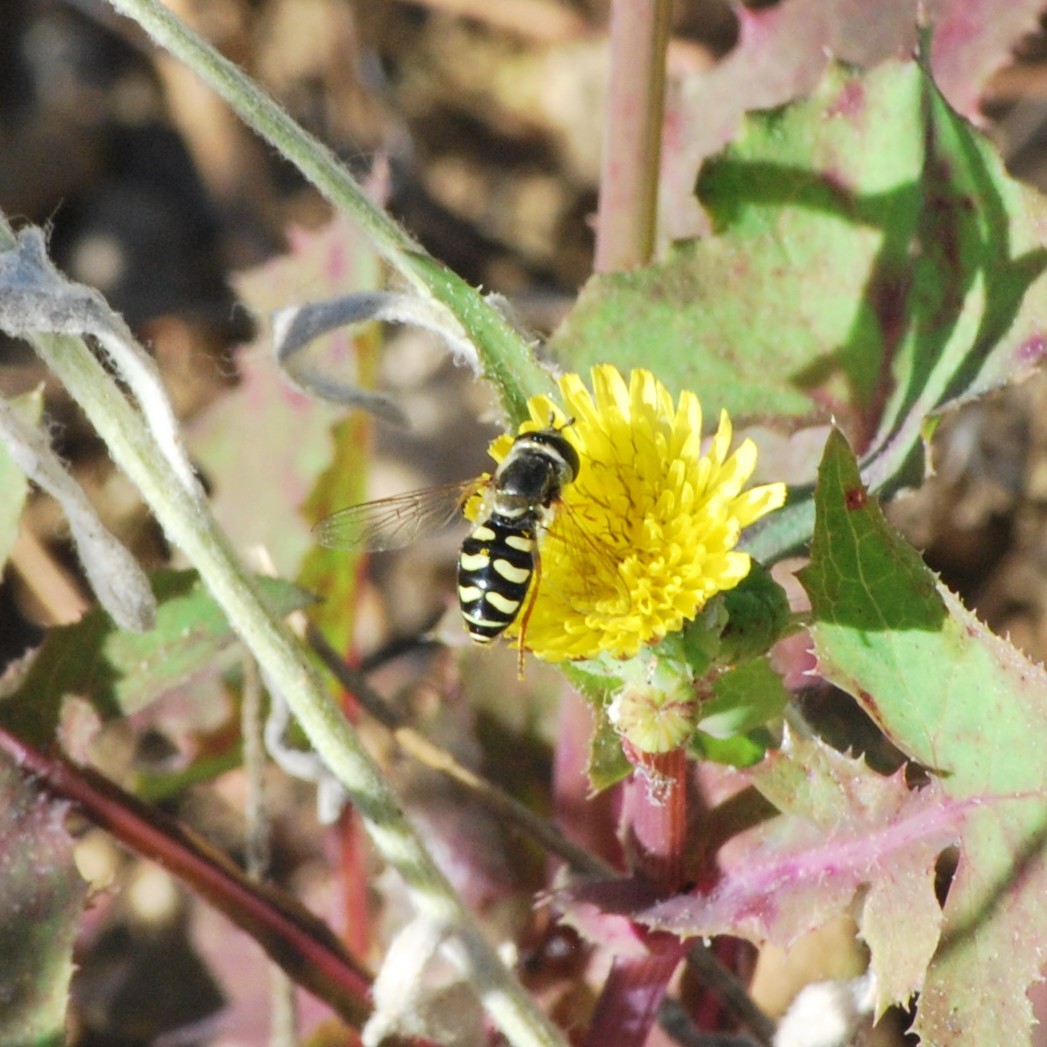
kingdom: Animalia
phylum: Arthropoda
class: Insecta
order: Diptera
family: Syrphidae
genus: Eupeodes
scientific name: Eupeodes volucris
